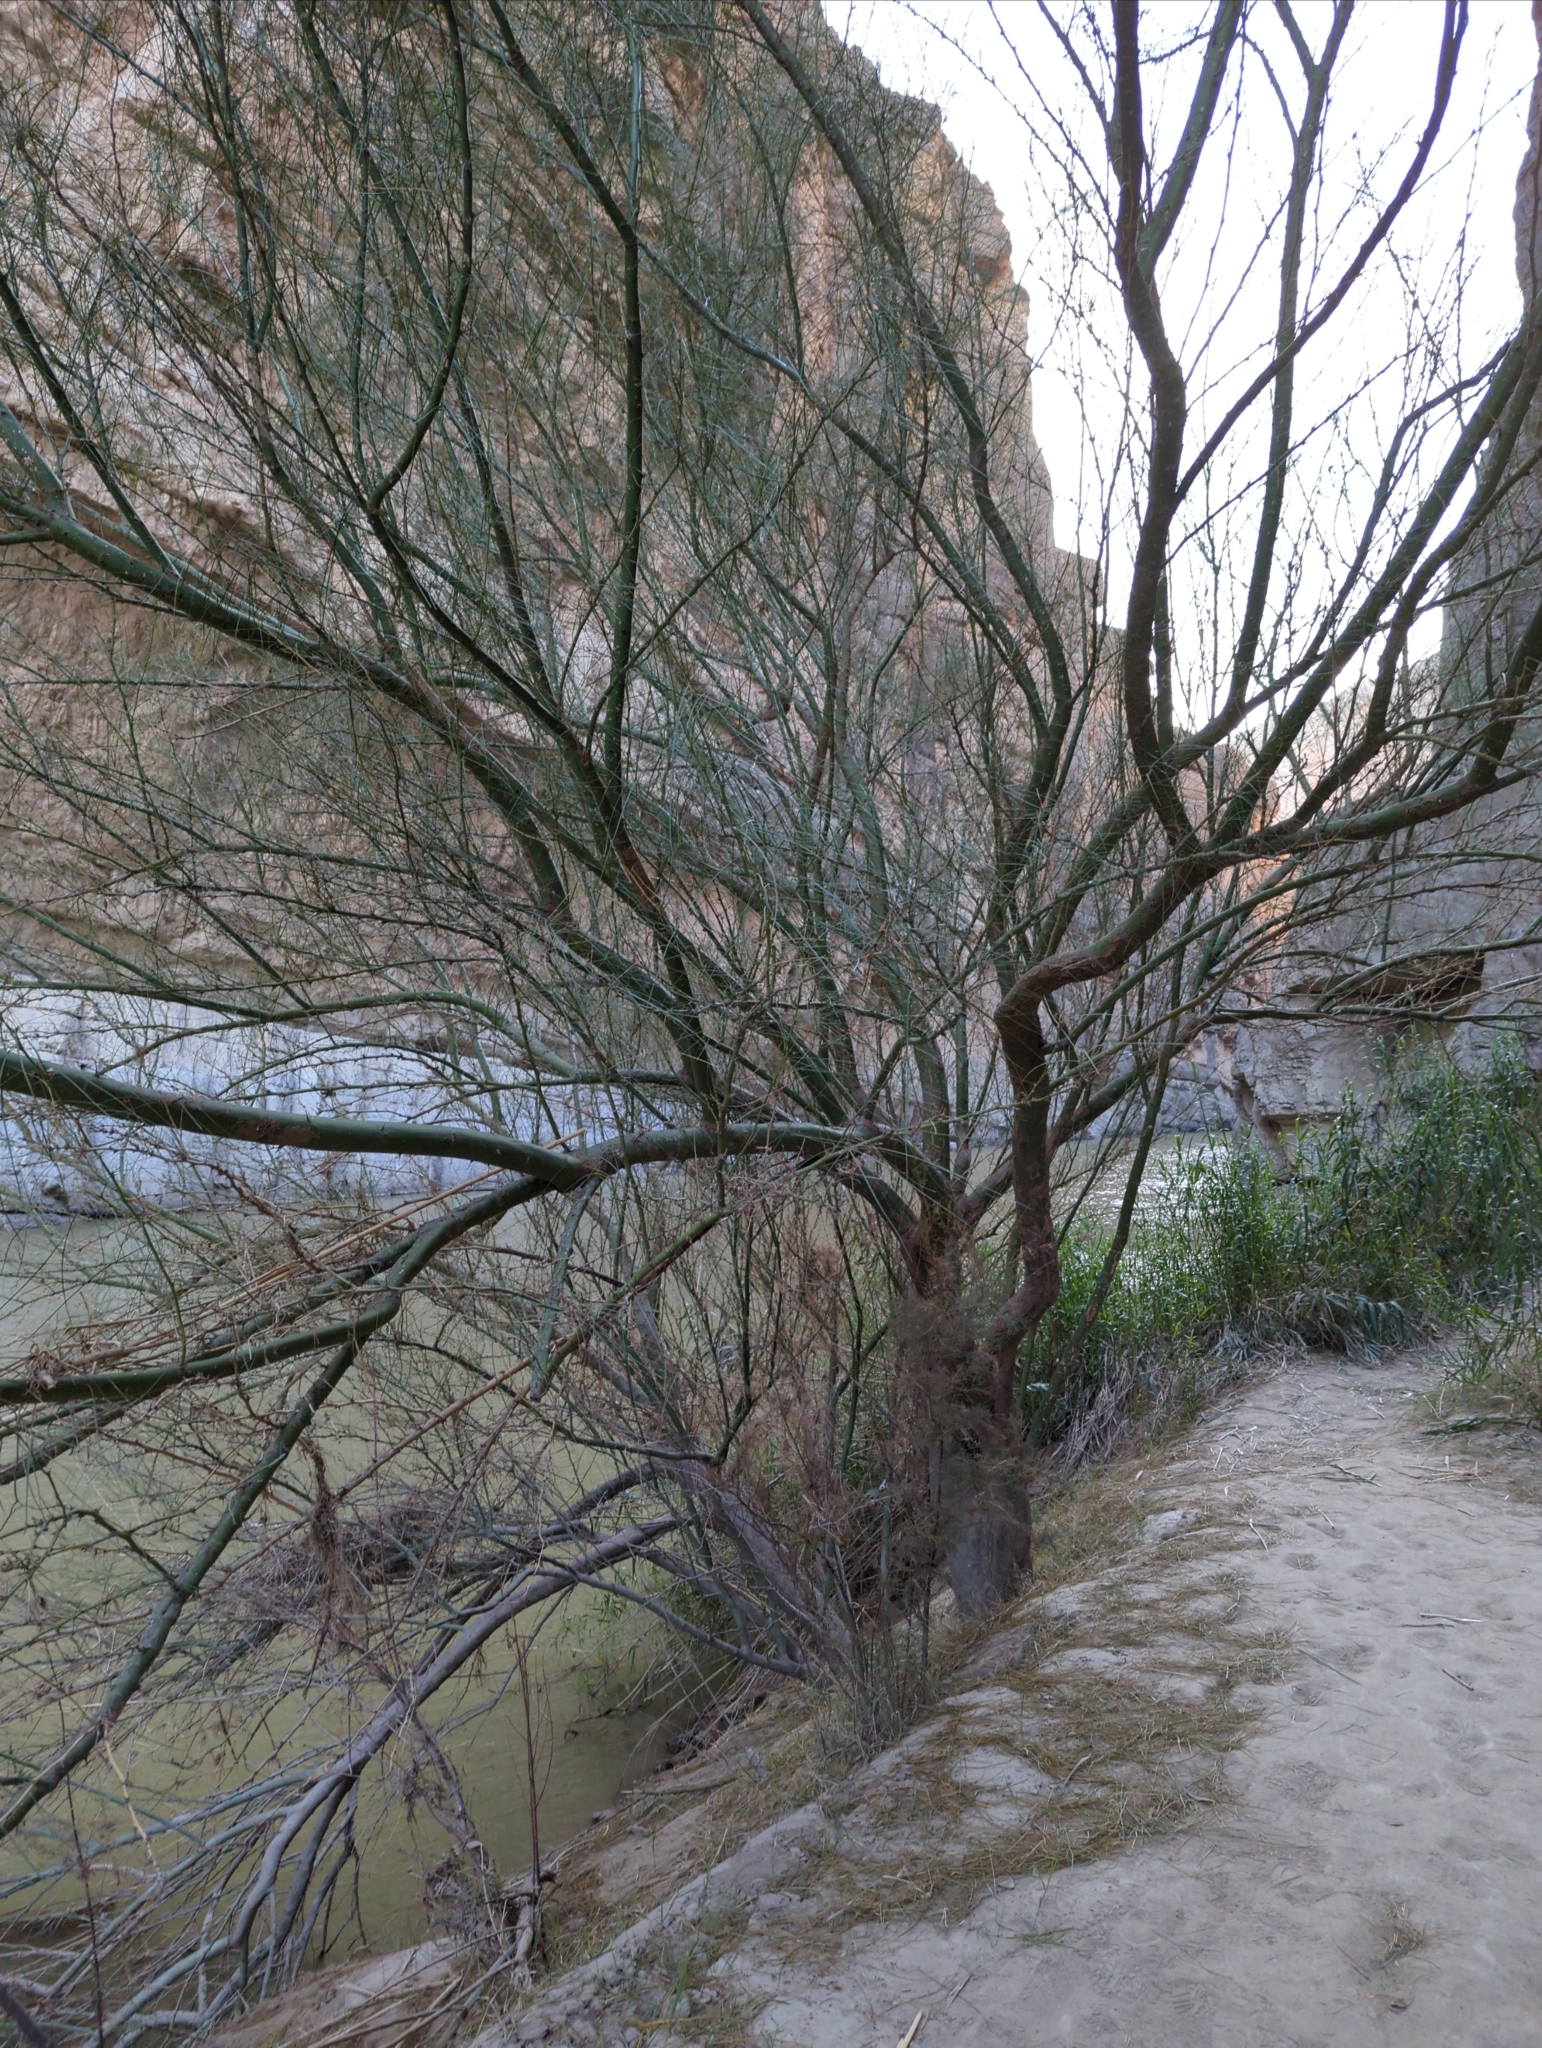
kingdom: Plantae
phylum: Tracheophyta
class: Magnoliopsida
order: Fabales
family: Fabaceae
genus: Parkinsonia
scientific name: Parkinsonia aculeata
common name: Jerusalem thorn
